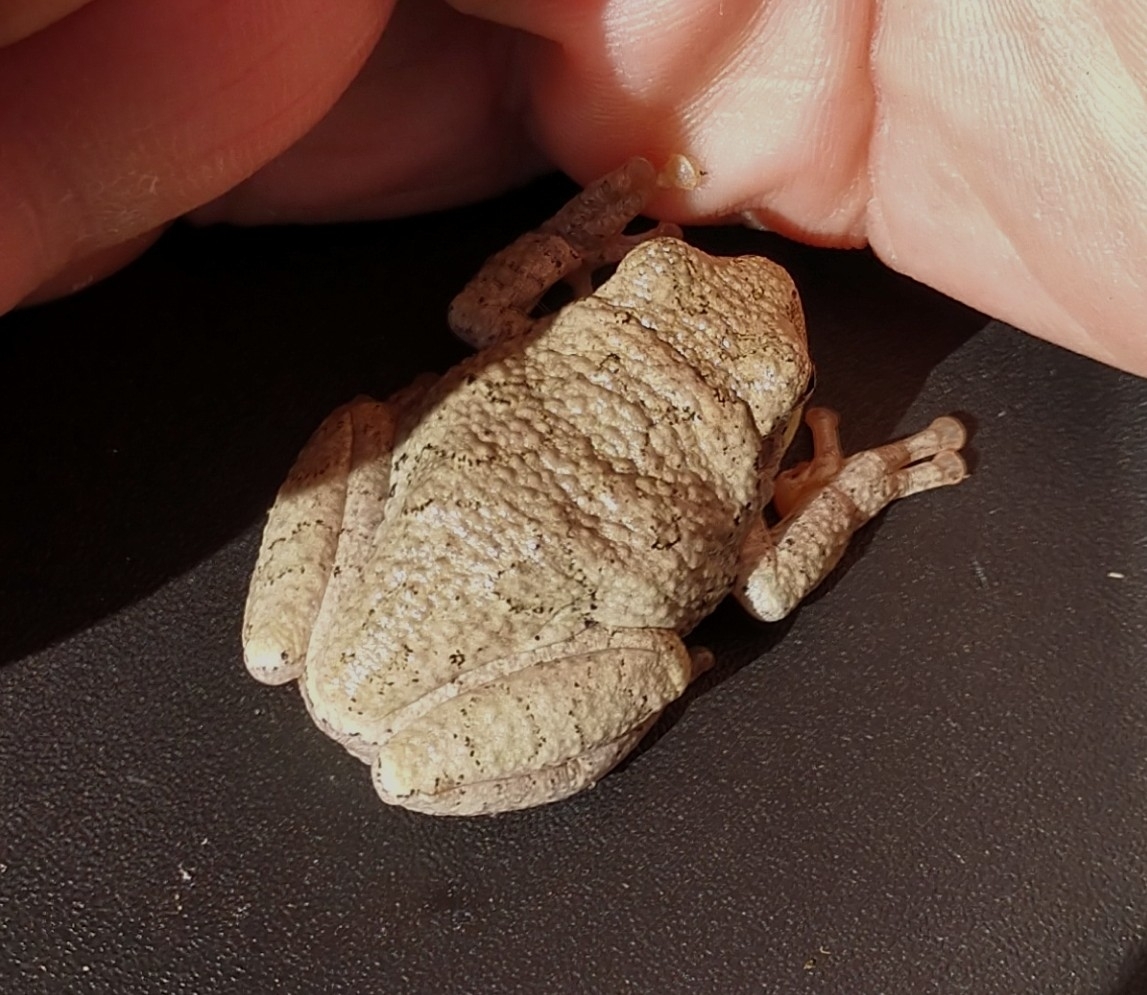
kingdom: Animalia
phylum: Chordata
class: Amphibia
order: Anura
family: Hylidae
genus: Hyla
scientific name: Hyla
